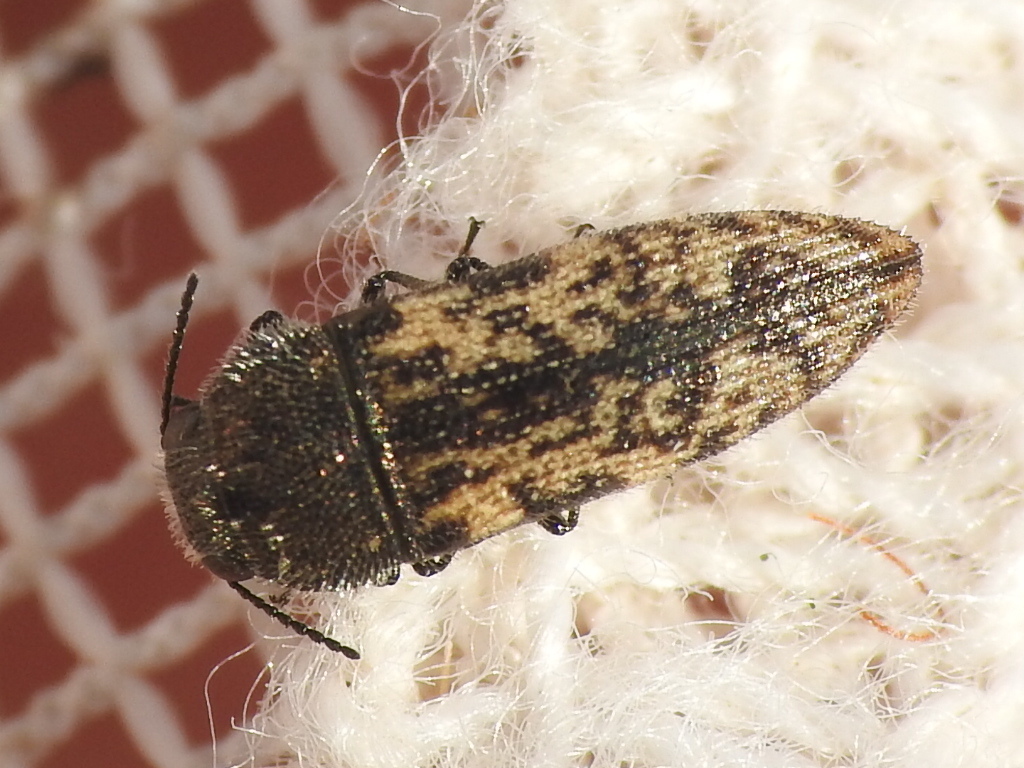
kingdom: Animalia
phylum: Arthropoda
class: Insecta
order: Coleoptera
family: Buprestidae
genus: Acmaeodera
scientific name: Acmaeodera neglecta
